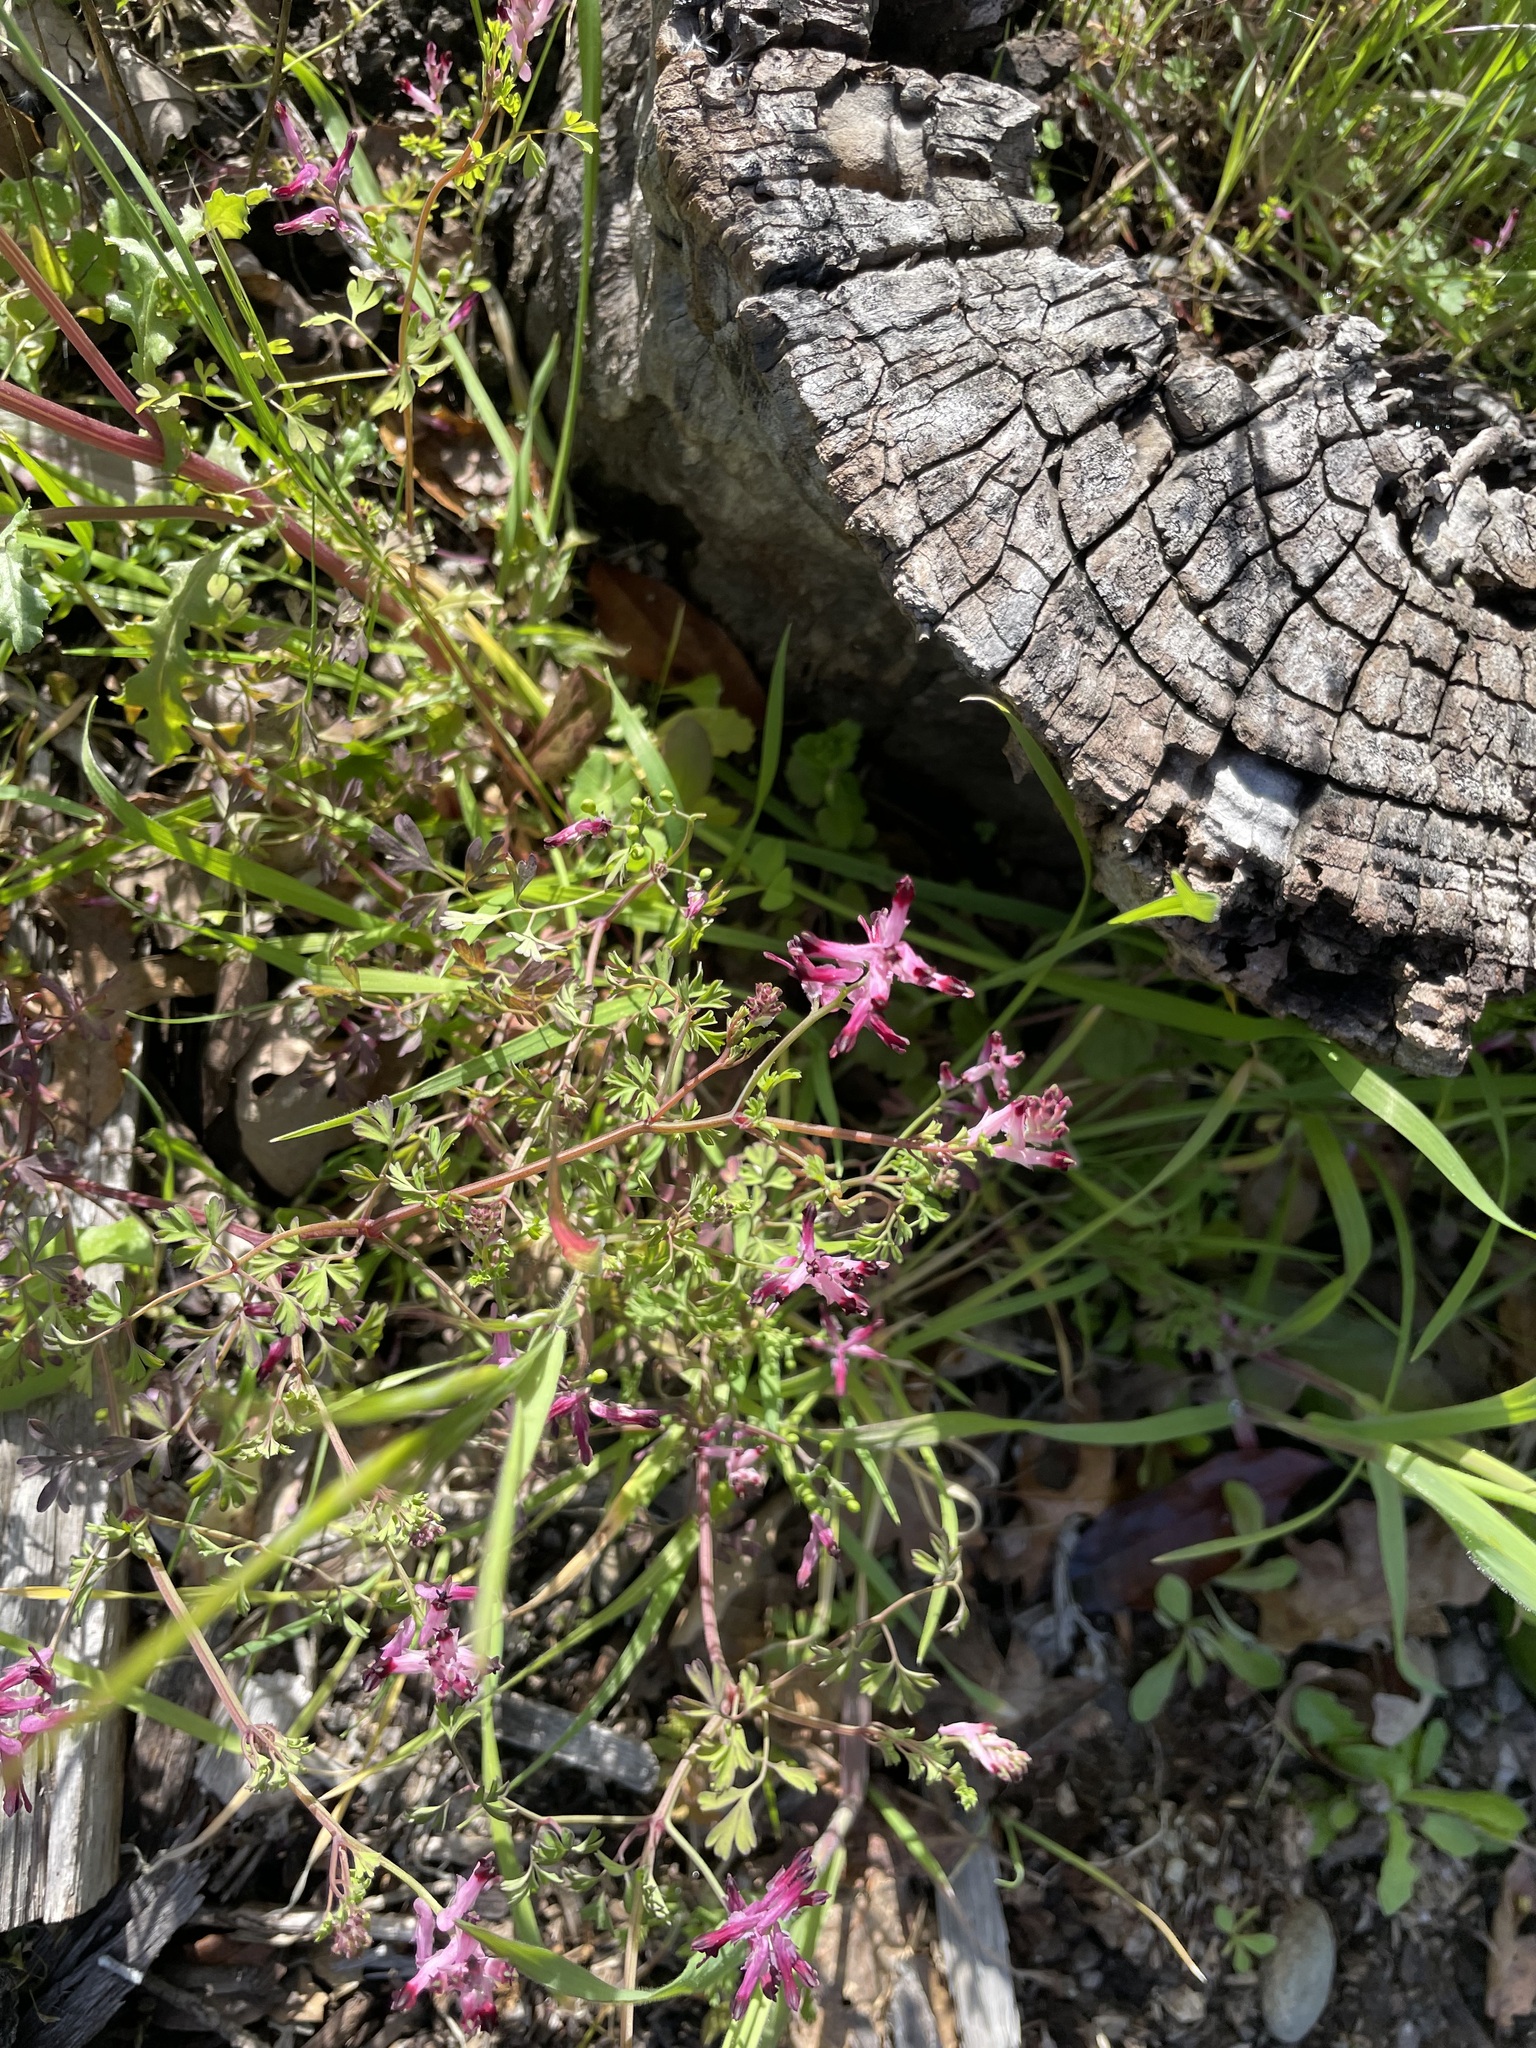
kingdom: Plantae
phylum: Tracheophyta
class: Magnoliopsida
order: Ranunculales
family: Papaveraceae
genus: Fumaria
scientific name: Fumaria muralis
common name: Common ramping-fumitory
